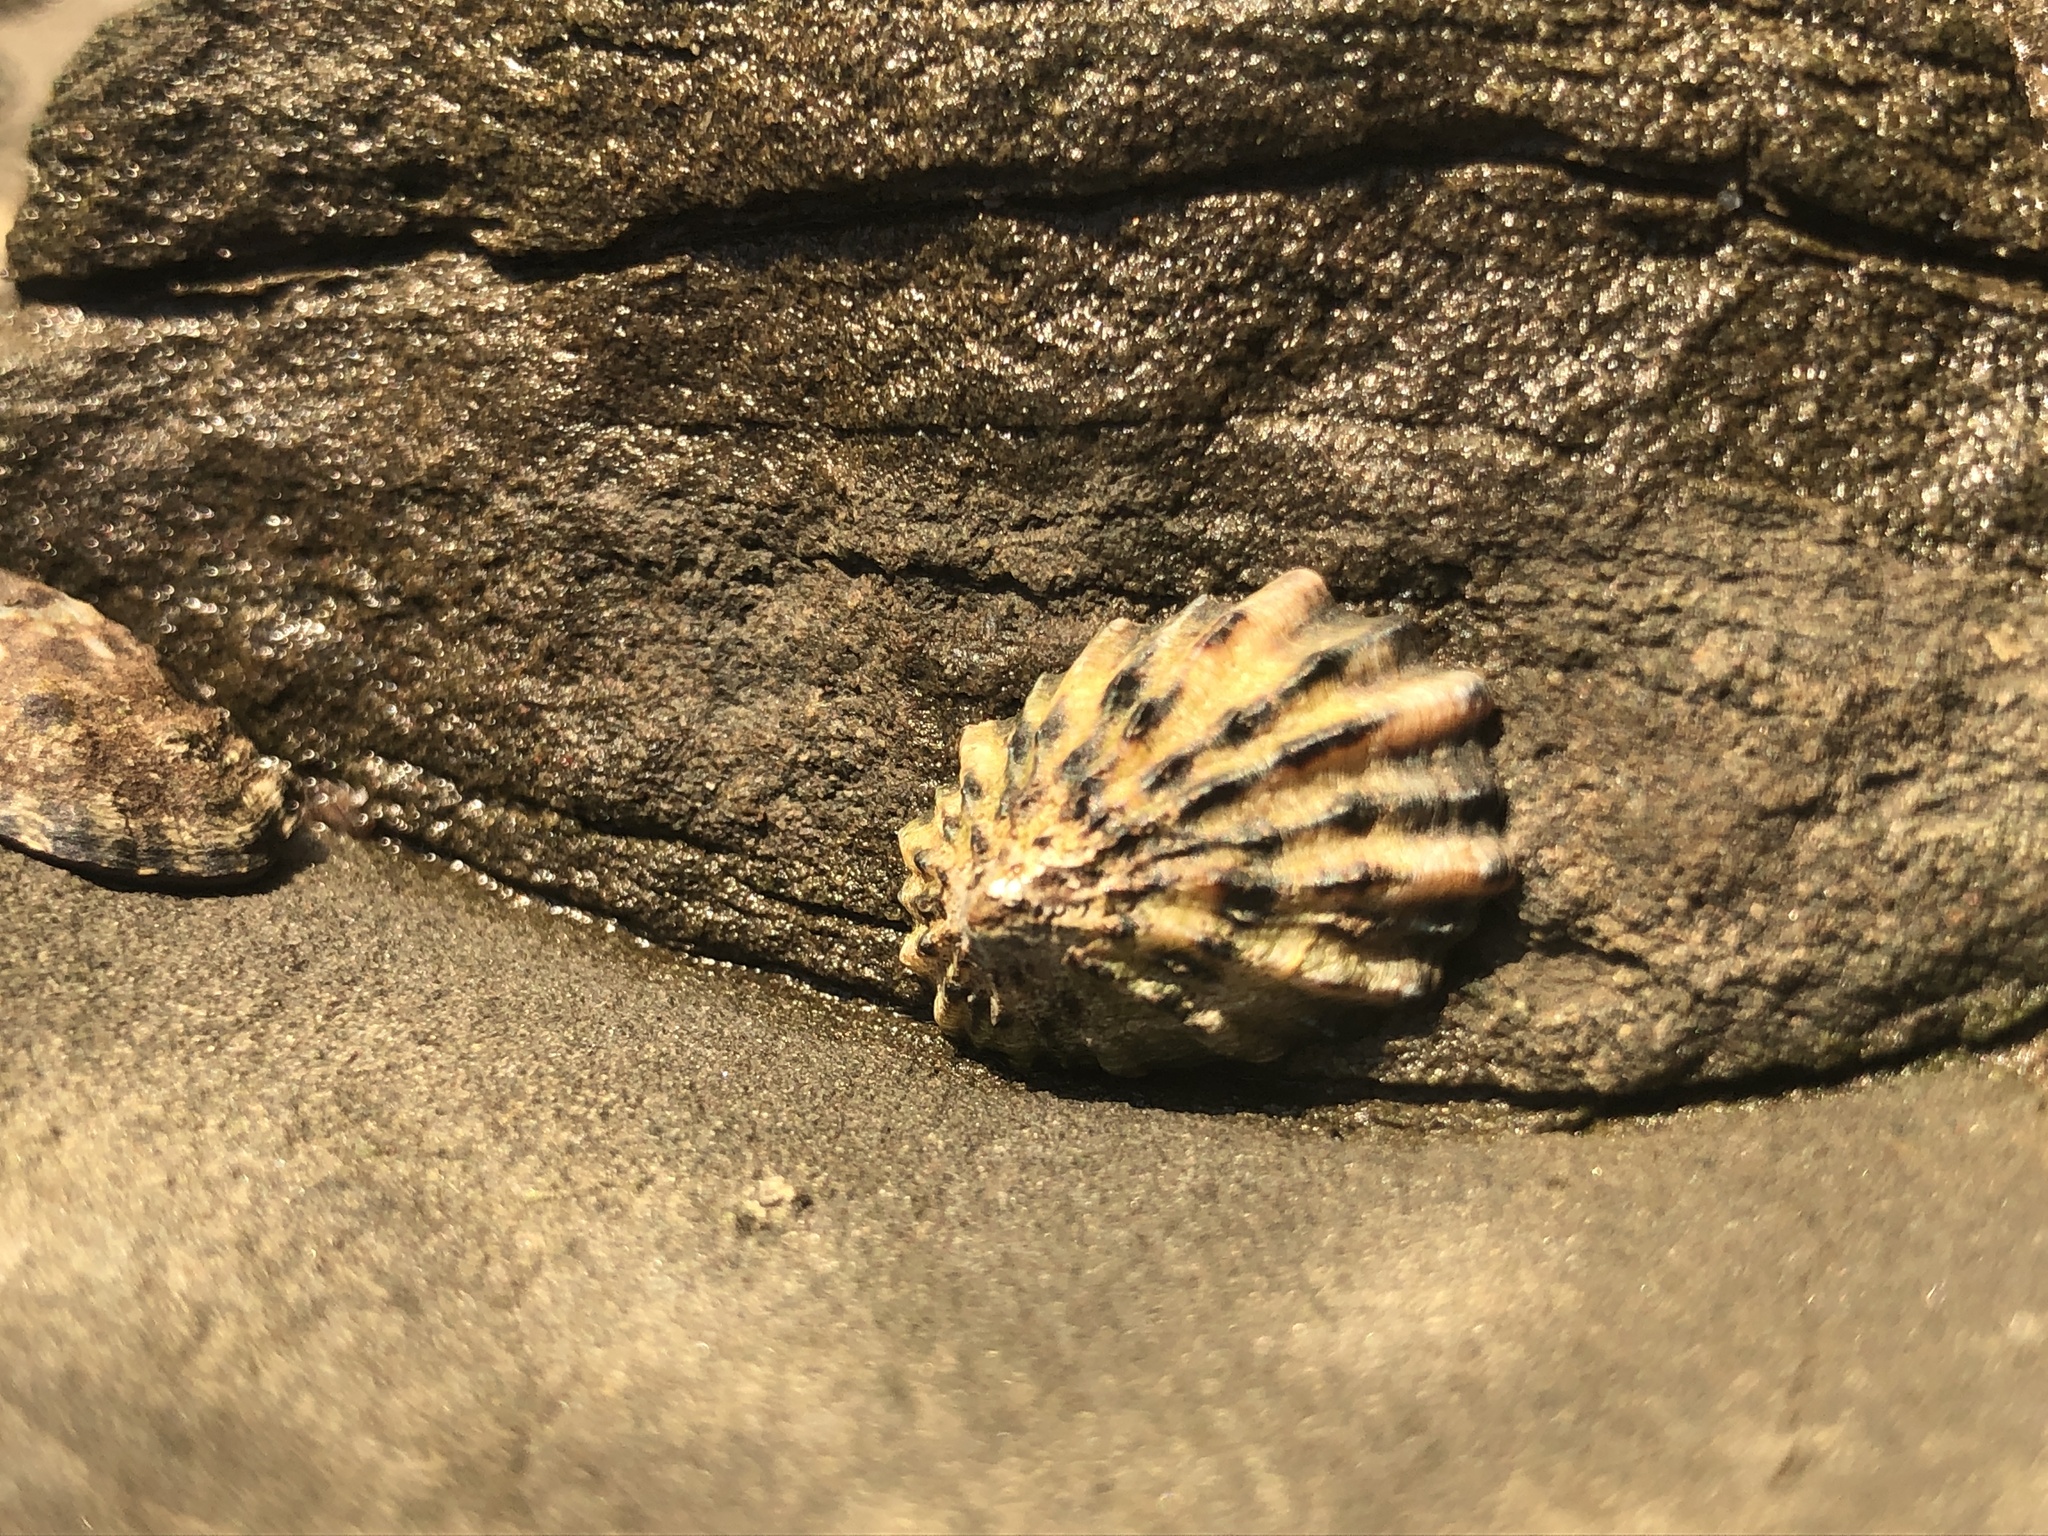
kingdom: Animalia
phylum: Mollusca
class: Gastropoda
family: Lottiidae
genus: Lottia
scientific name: Lottia scabra
